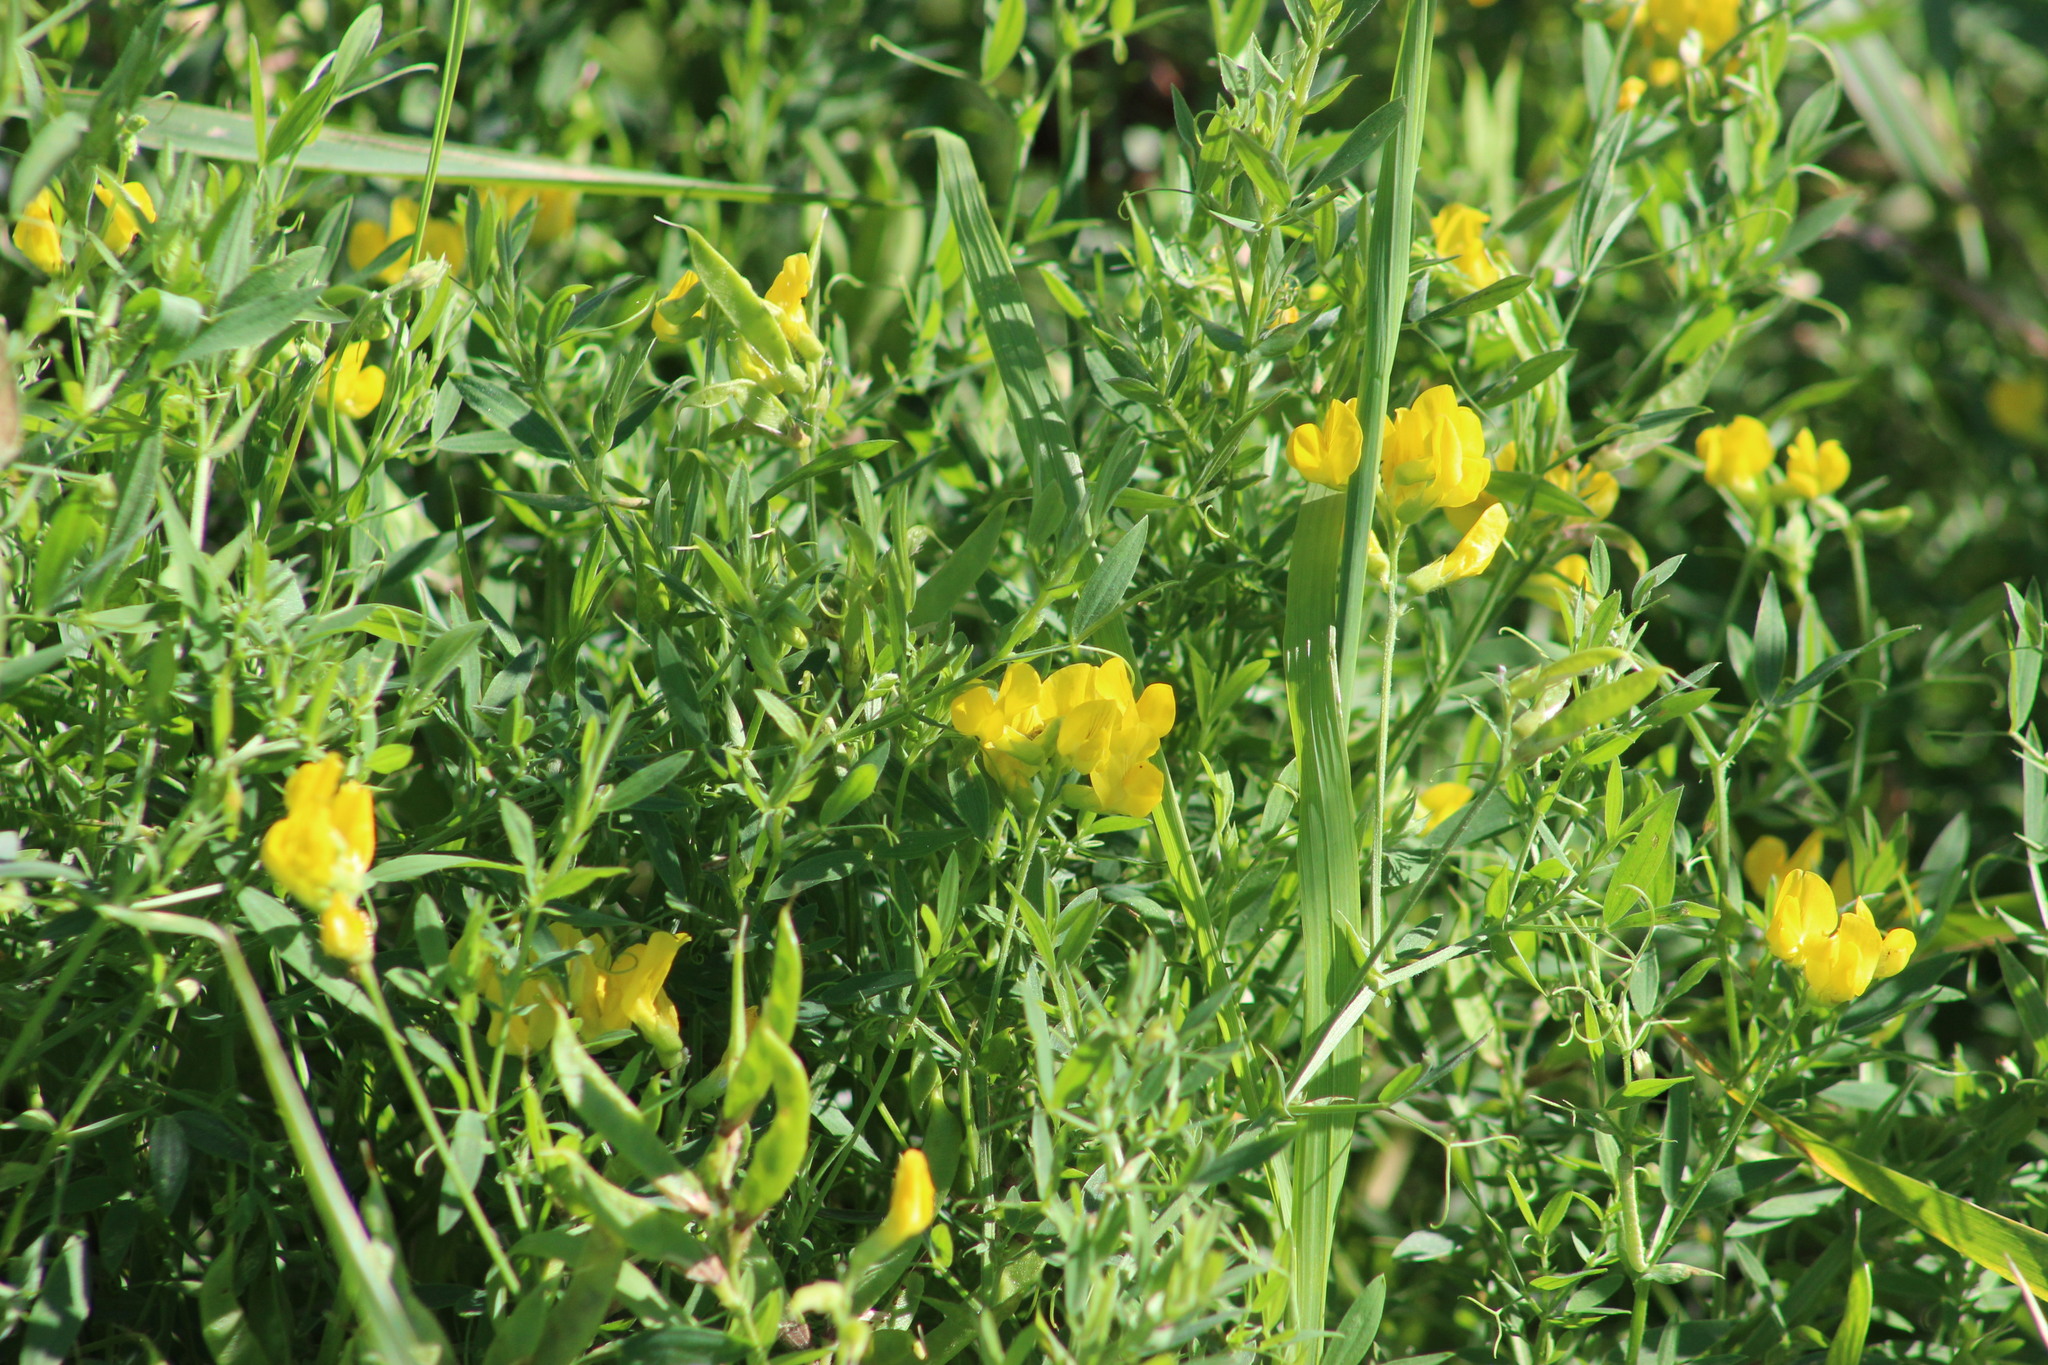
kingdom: Plantae
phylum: Tracheophyta
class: Magnoliopsida
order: Fabales
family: Fabaceae
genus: Lathyrus
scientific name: Lathyrus pratensis
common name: Meadow vetchling
